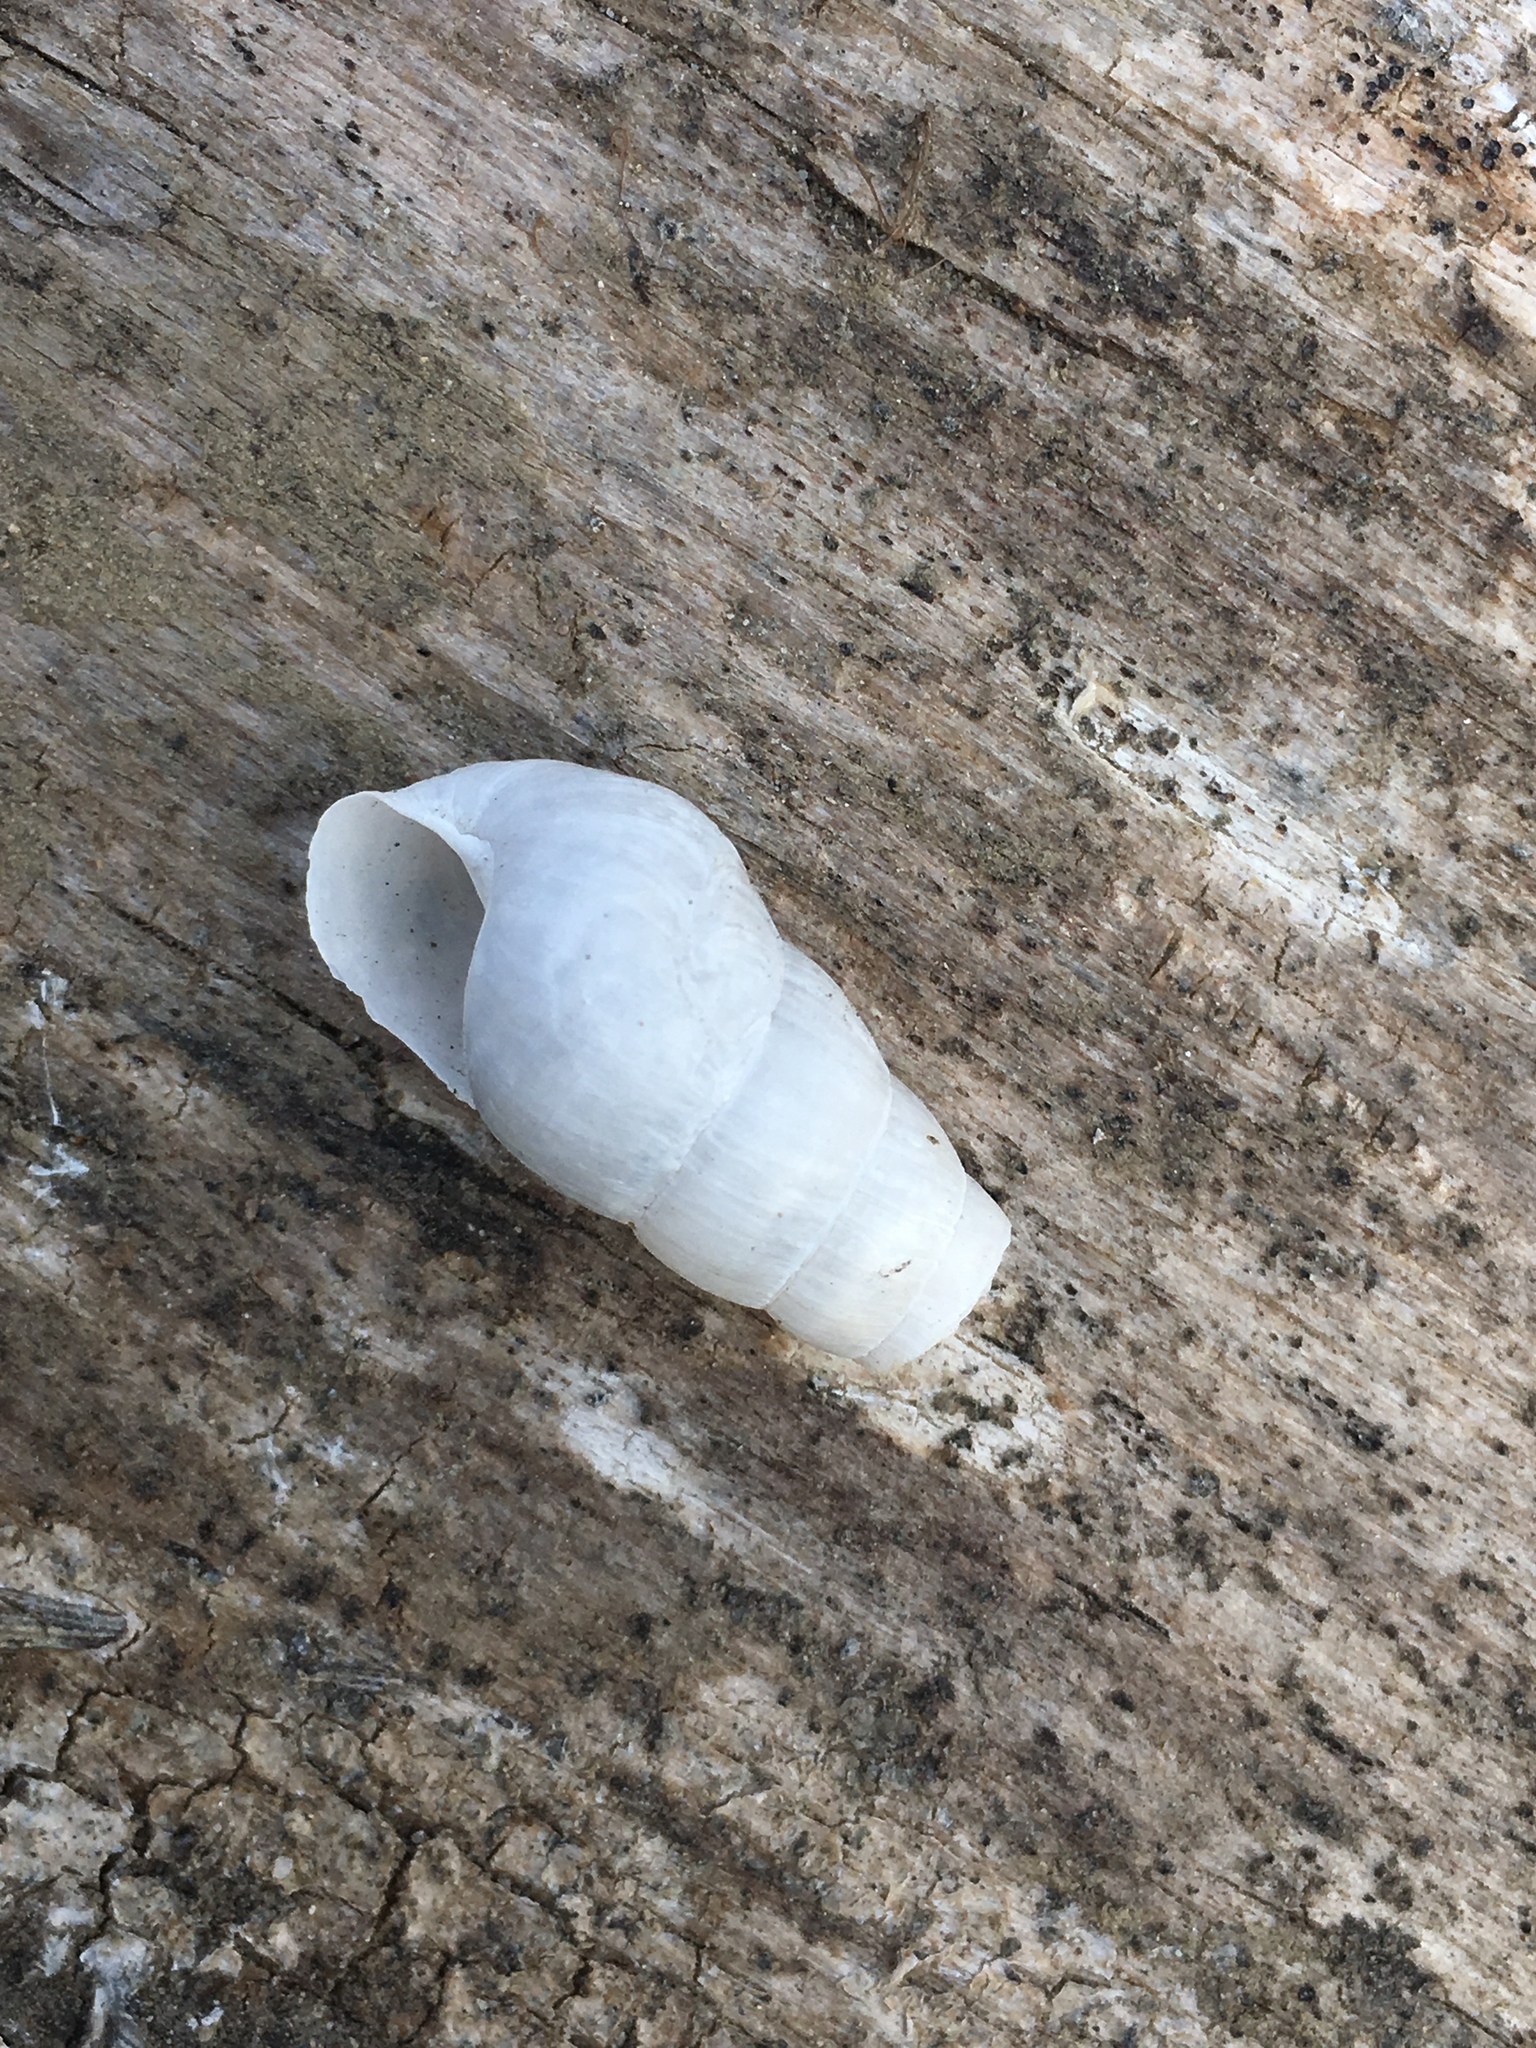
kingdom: Animalia
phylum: Mollusca
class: Gastropoda
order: Stylommatophora
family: Achatinidae
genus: Rumina
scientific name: Rumina decollata
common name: Decollate snail
